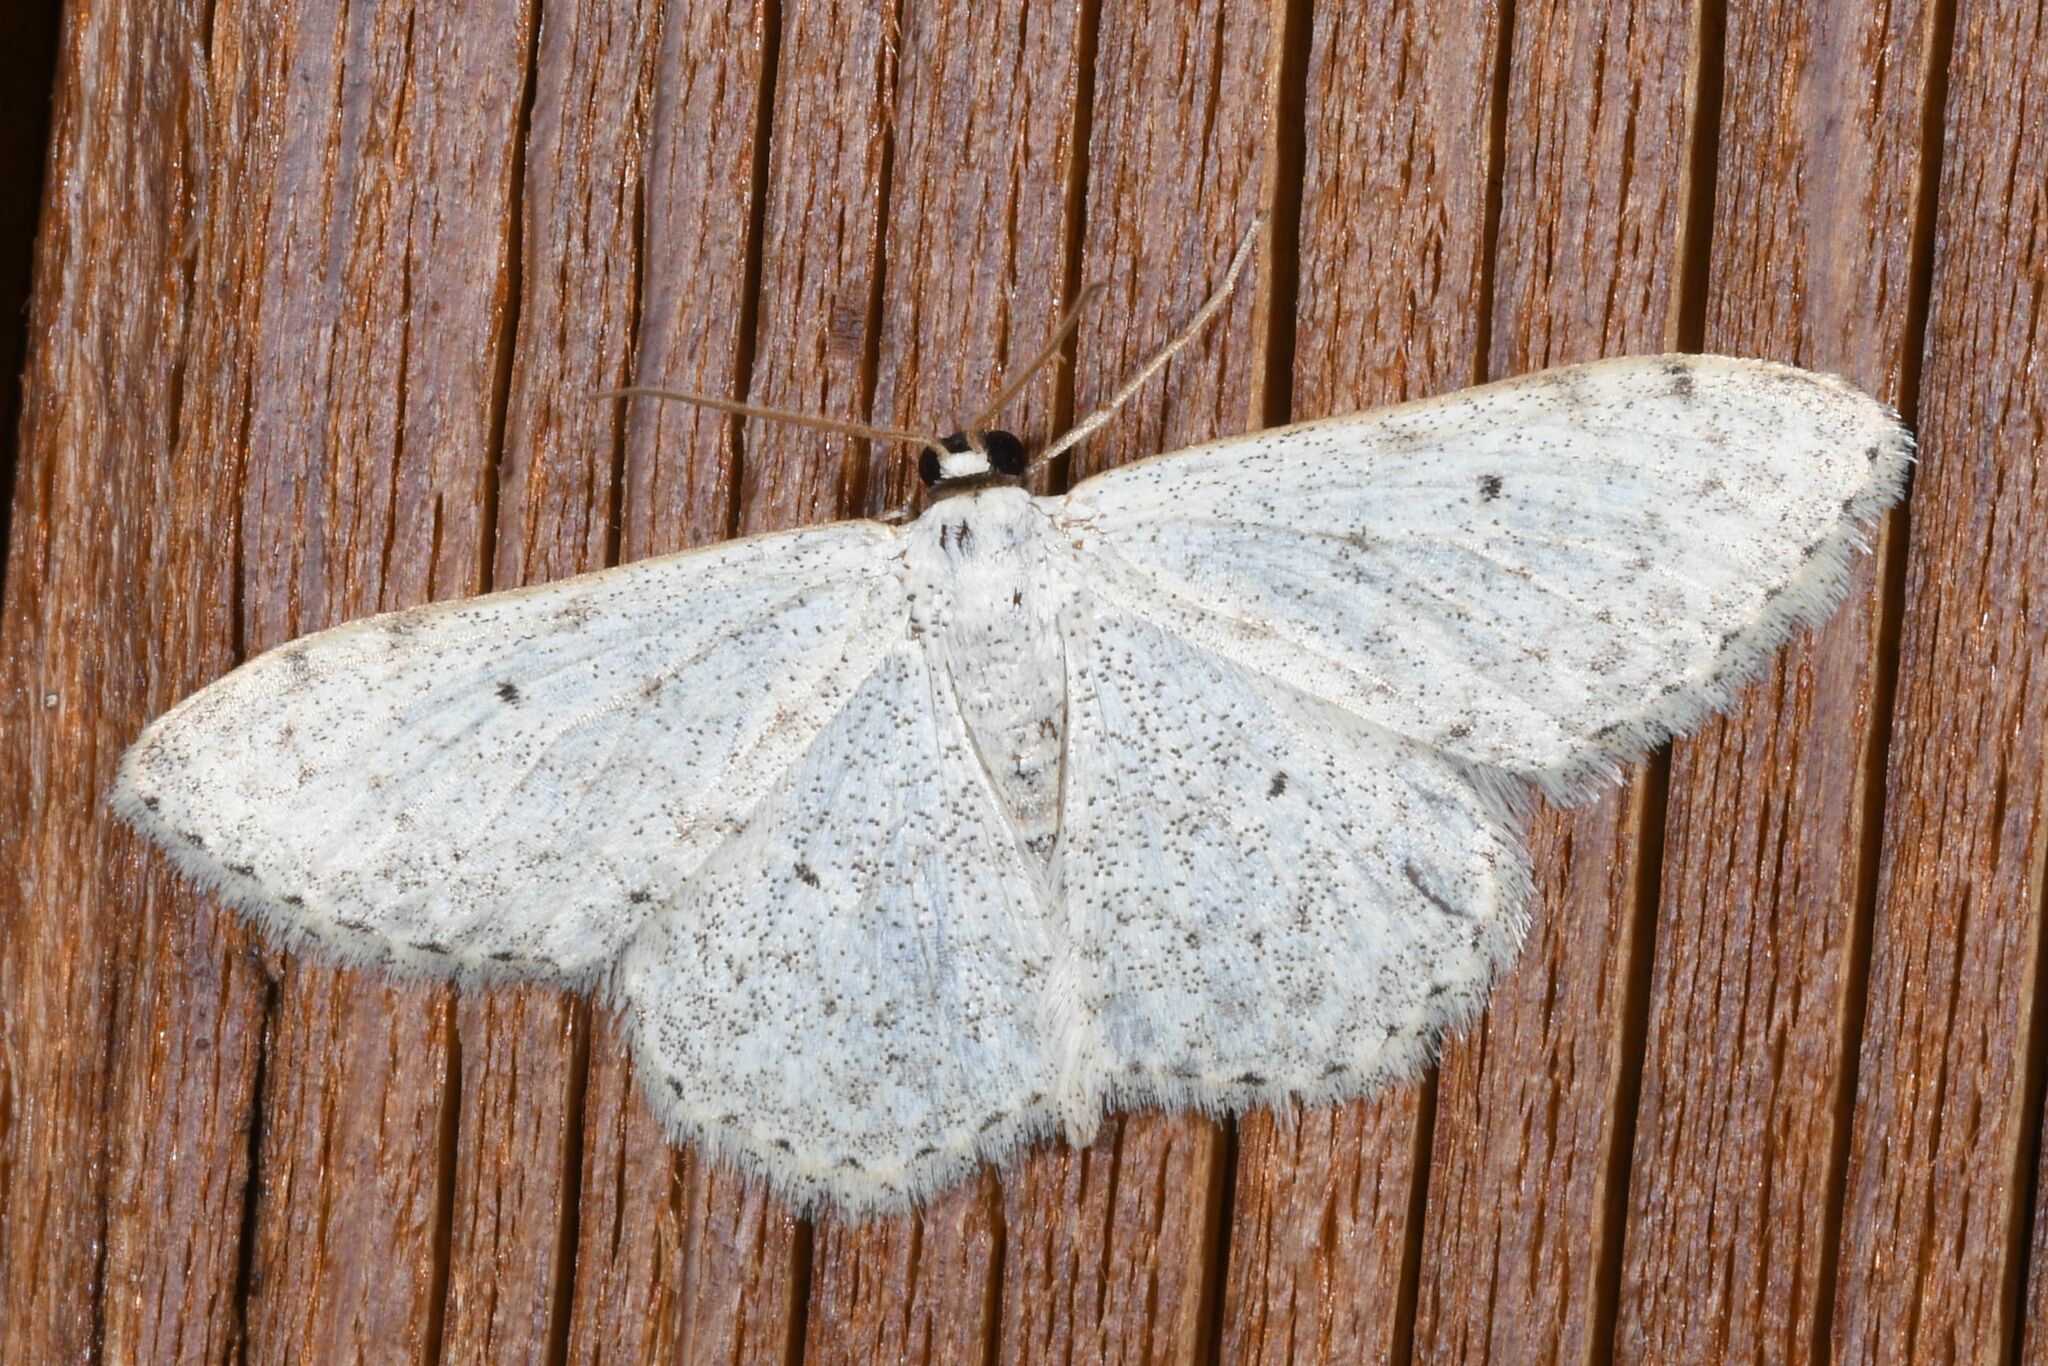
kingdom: Animalia
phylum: Arthropoda
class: Insecta
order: Lepidoptera
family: Geometridae
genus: Scopula
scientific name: Scopula marginepunctata
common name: Mullein wave
